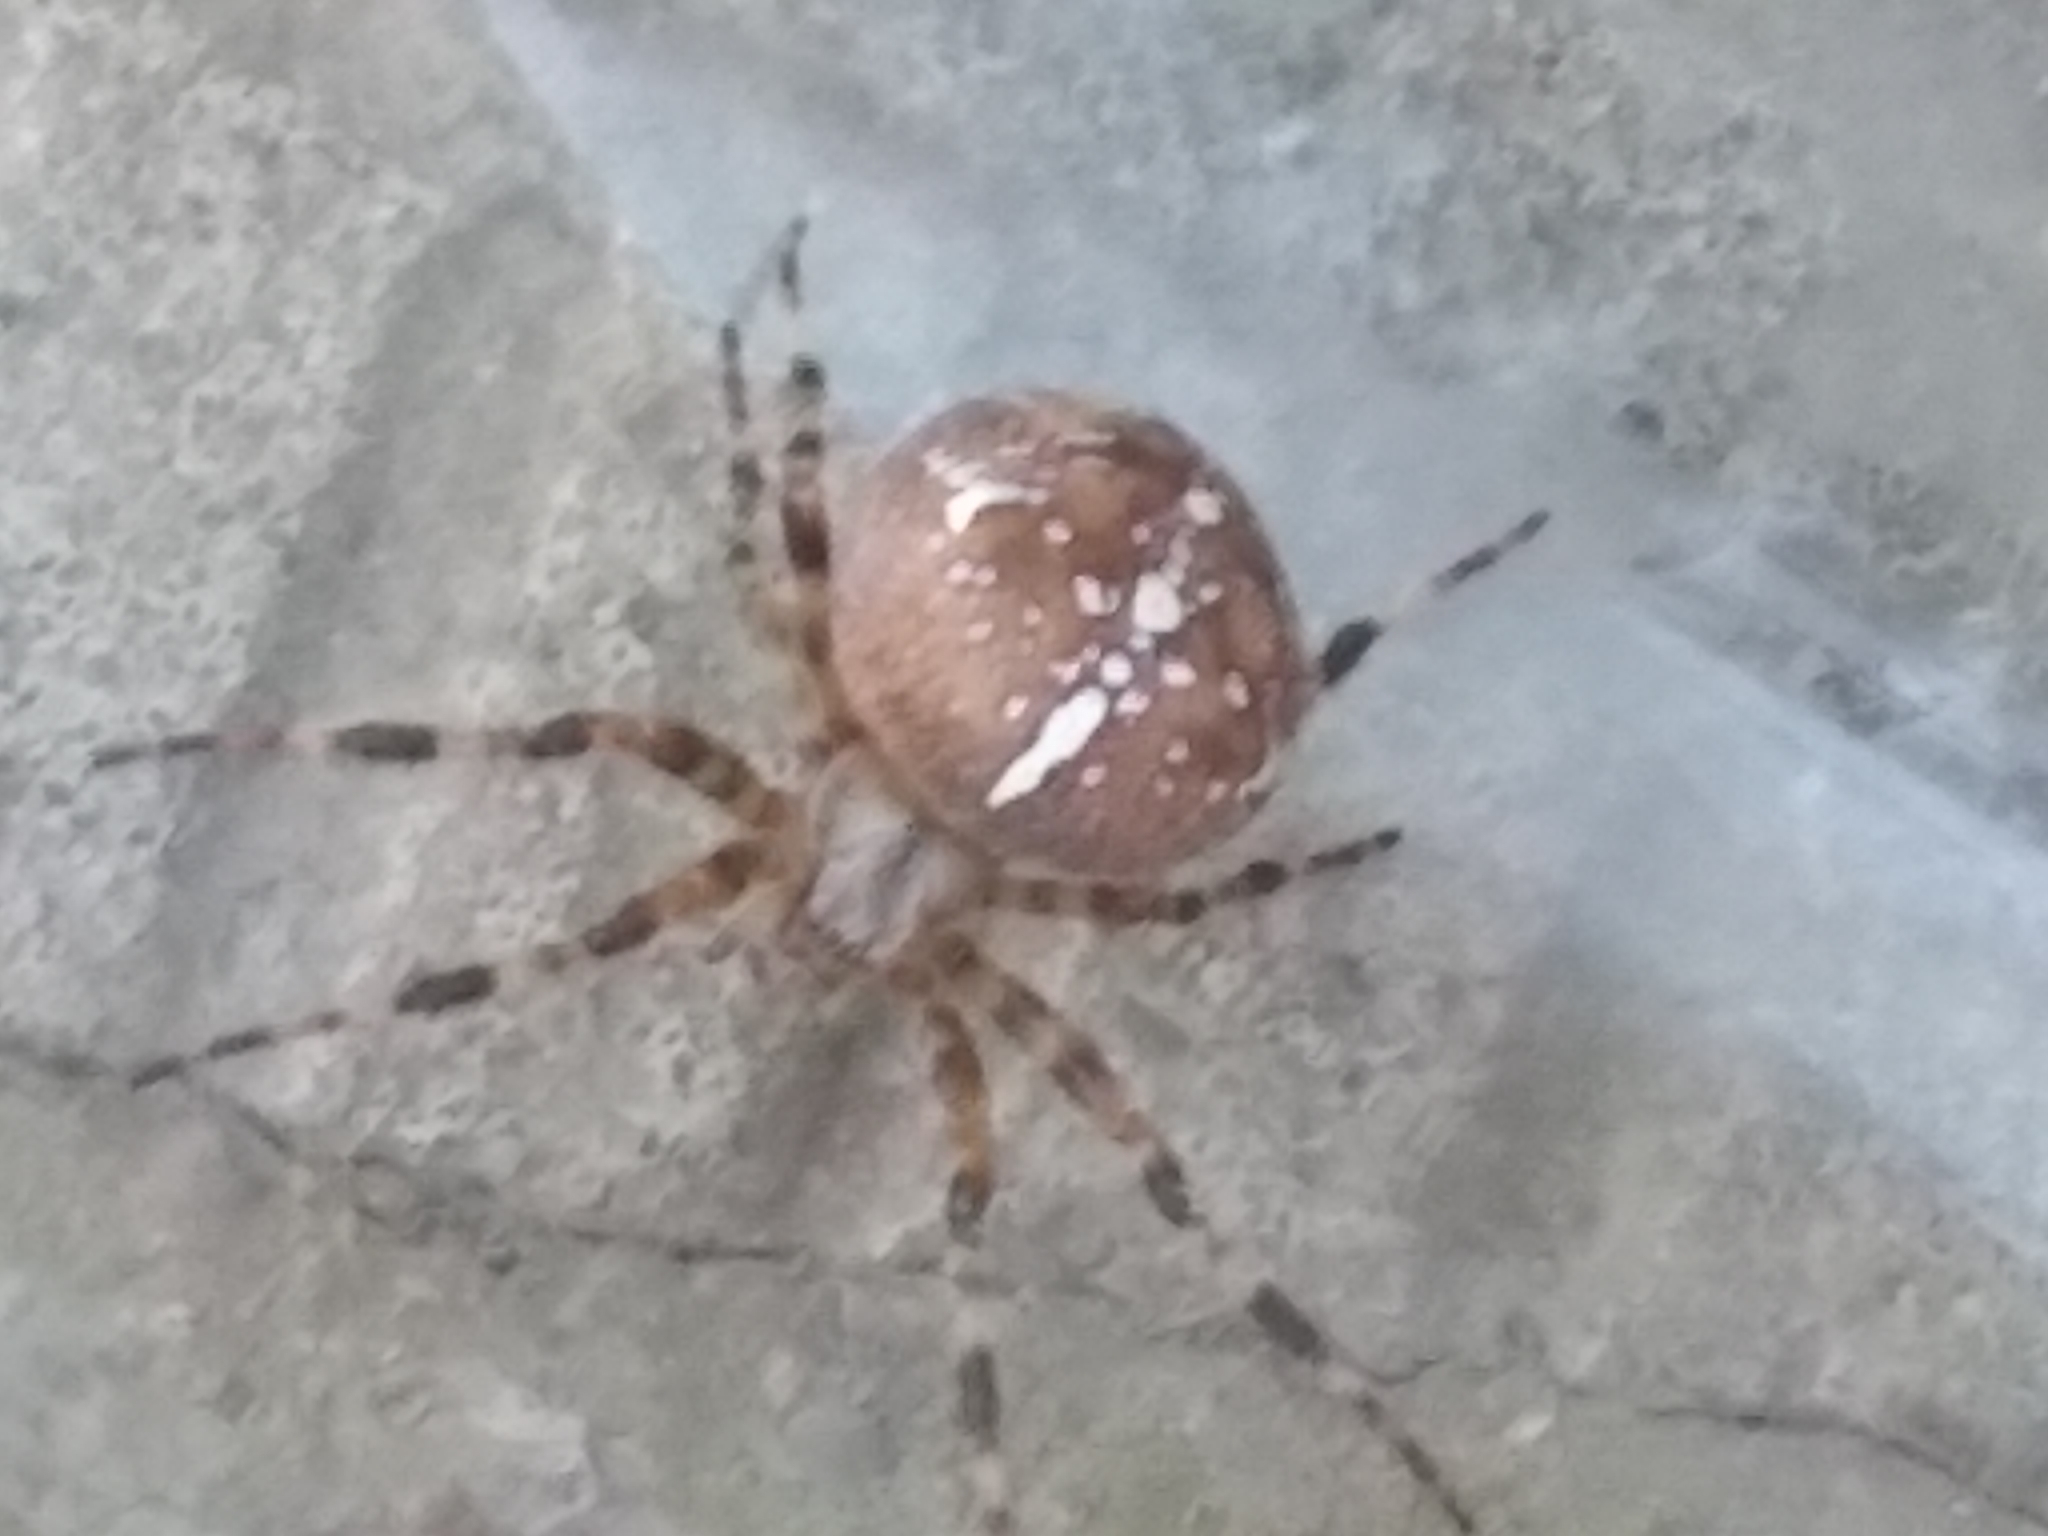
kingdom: Animalia
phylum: Arthropoda
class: Arachnida
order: Araneae
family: Araneidae
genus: Araneus
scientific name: Araneus diadematus
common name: Cross orbweaver
